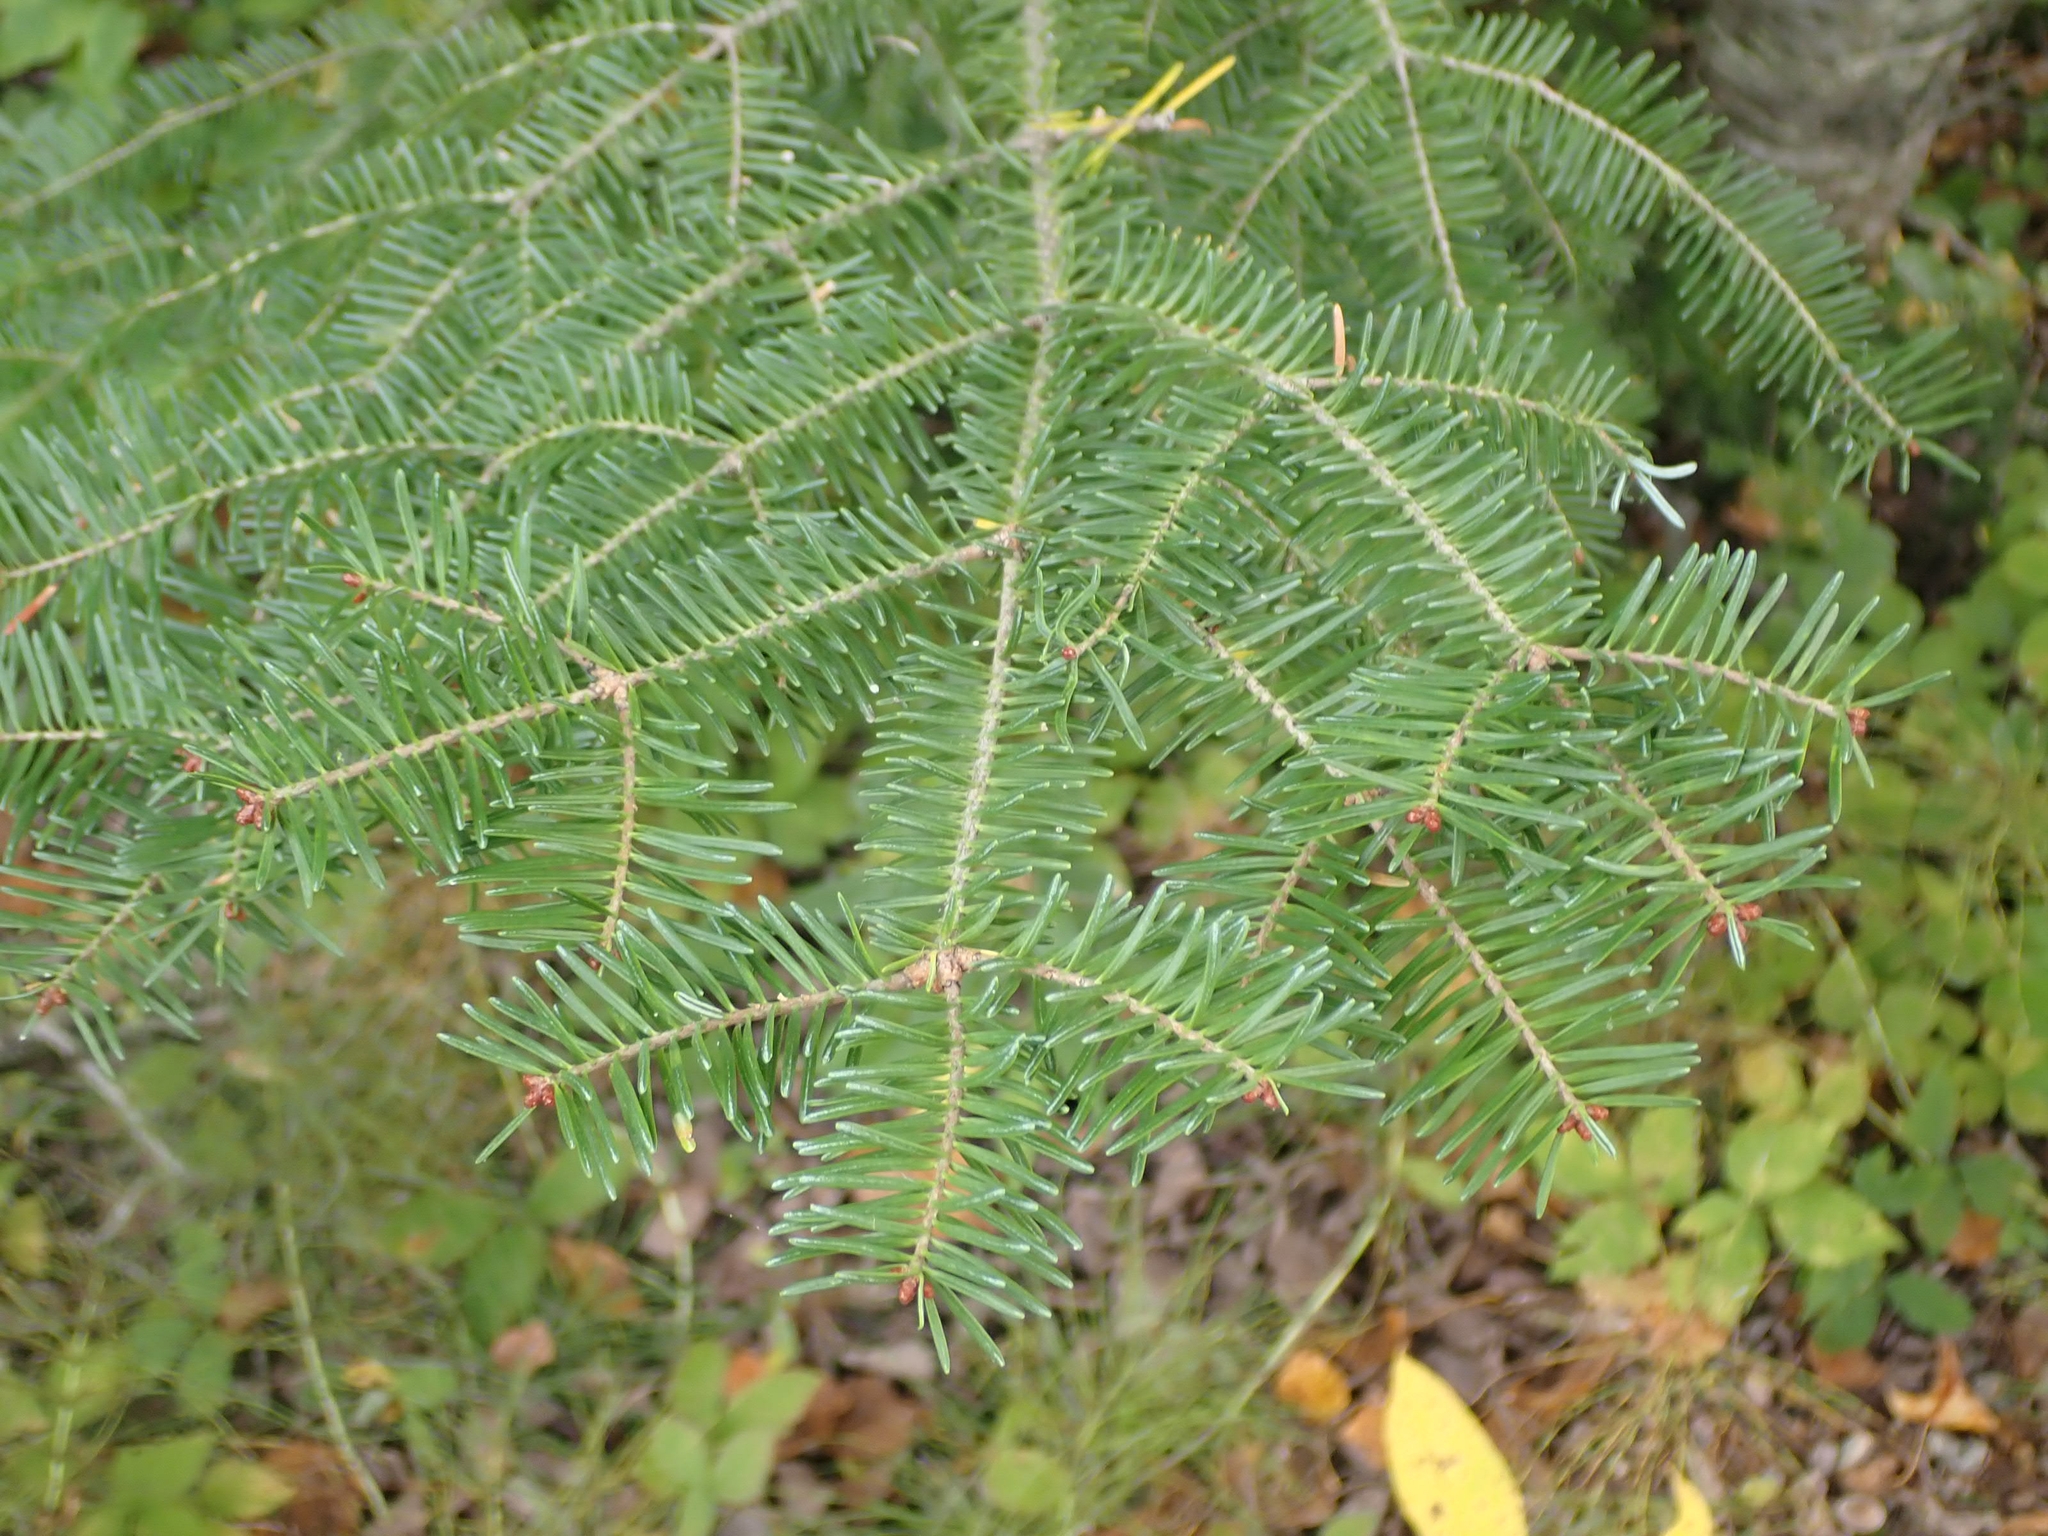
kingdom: Plantae
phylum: Tracheophyta
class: Pinopsida
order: Pinales
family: Pinaceae
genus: Abies
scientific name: Abies balsamea
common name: Balsam fir
